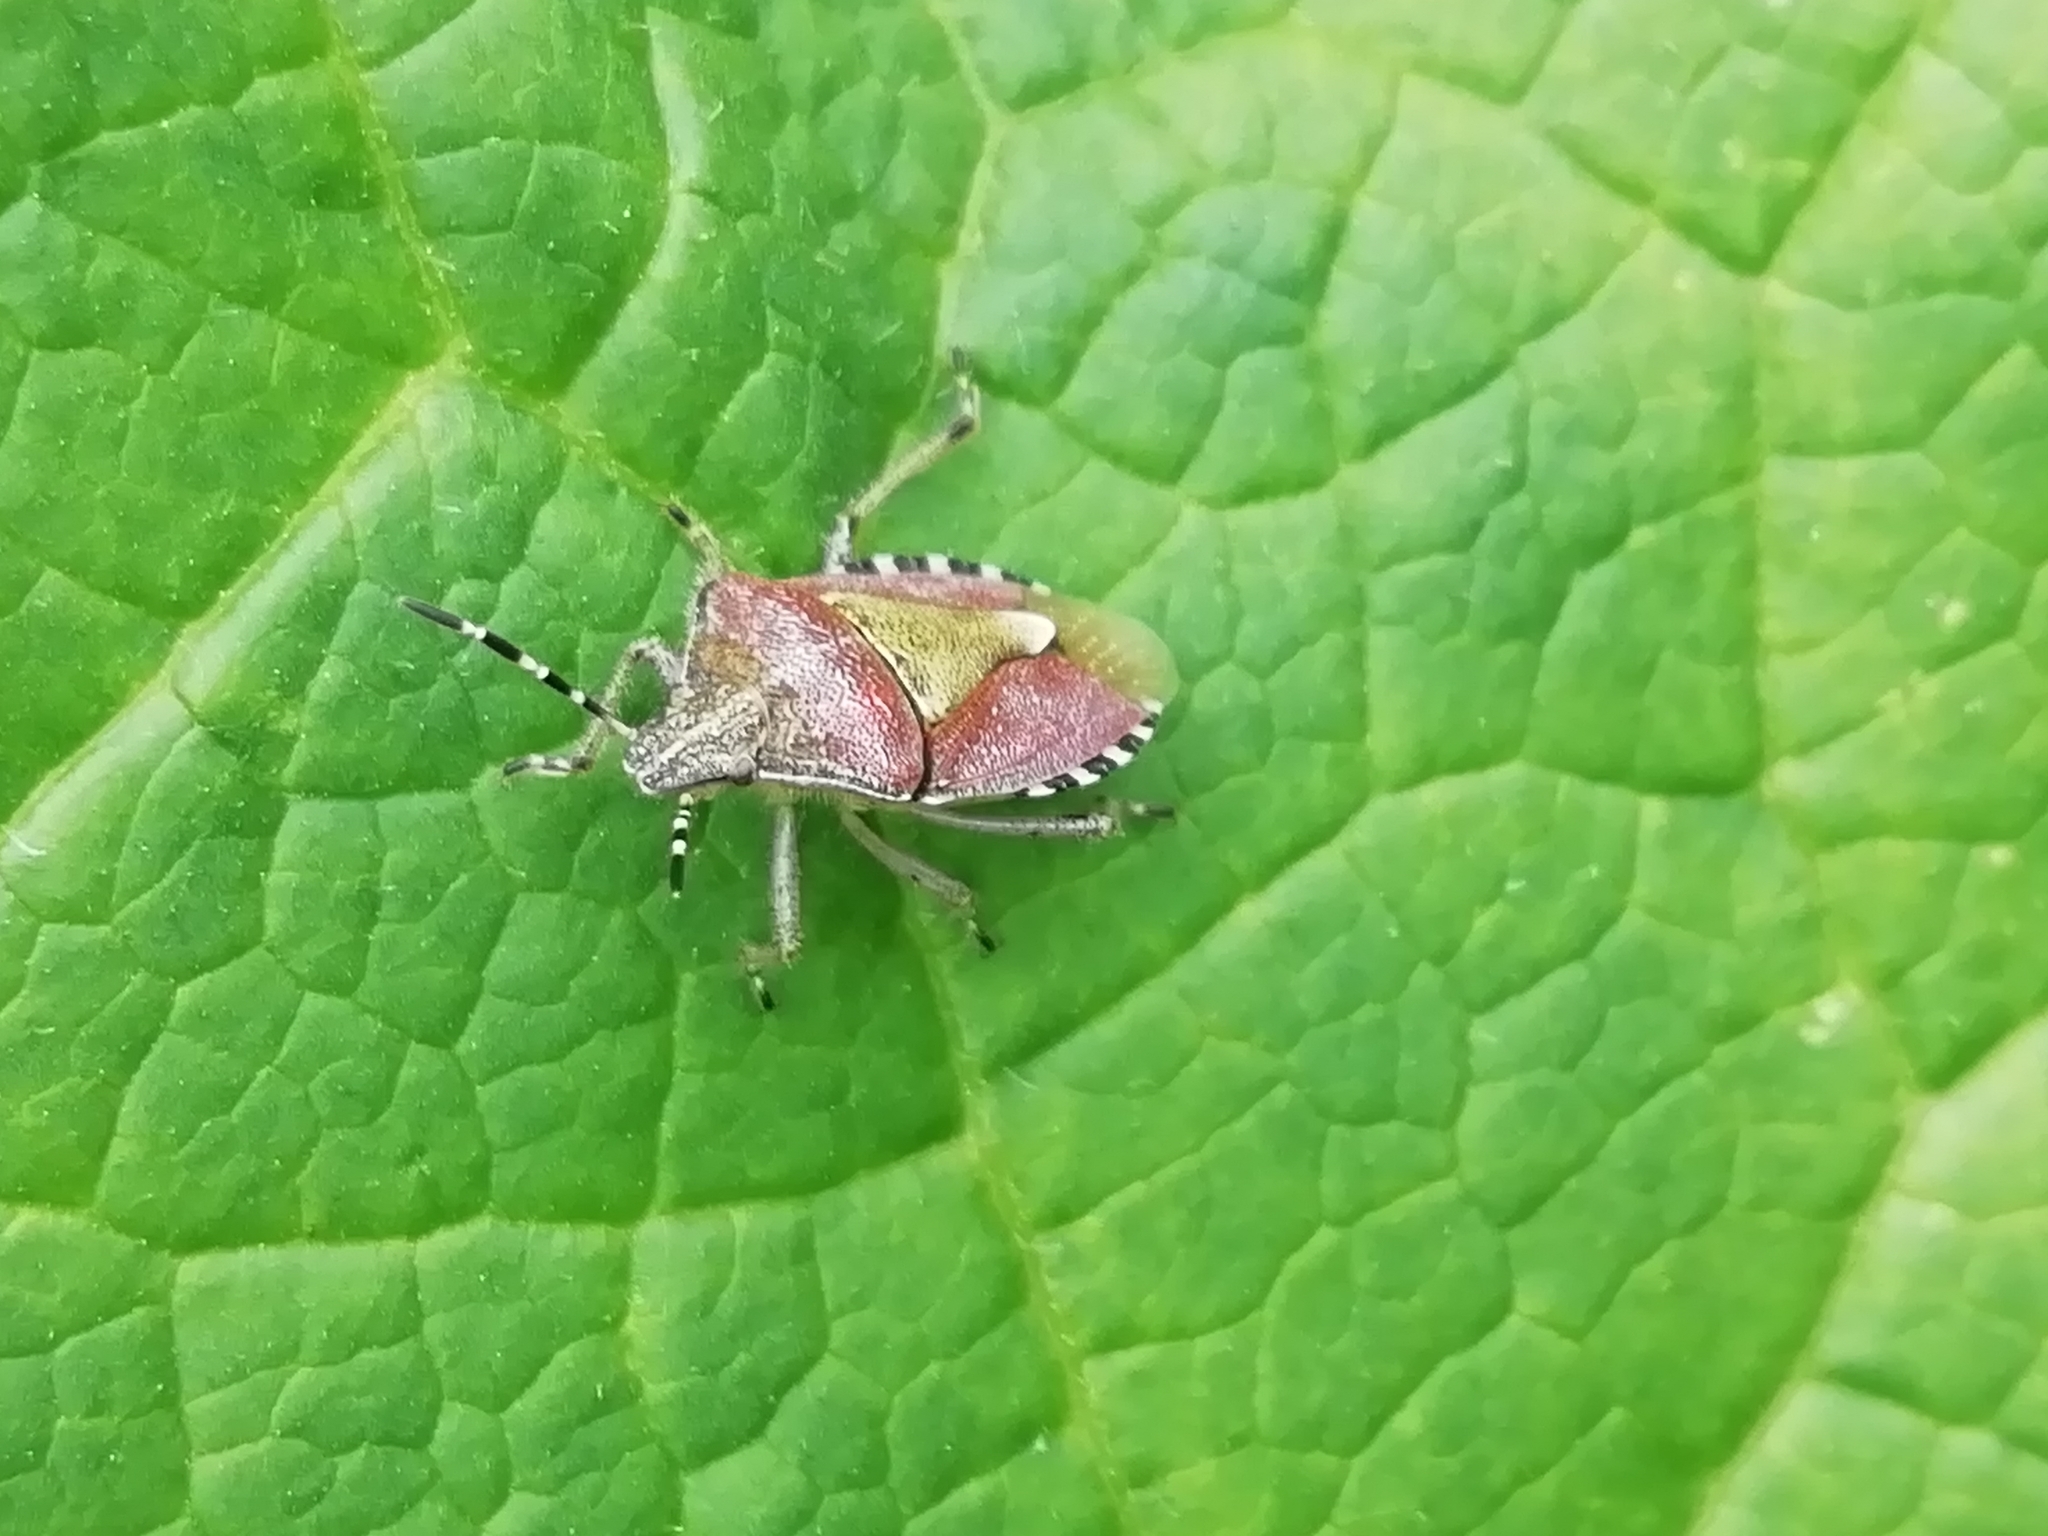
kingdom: Animalia
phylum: Arthropoda
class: Insecta
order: Hemiptera
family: Pentatomidae
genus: Dolycoris
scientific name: Dolycoris baccarum
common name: Sloe bug
